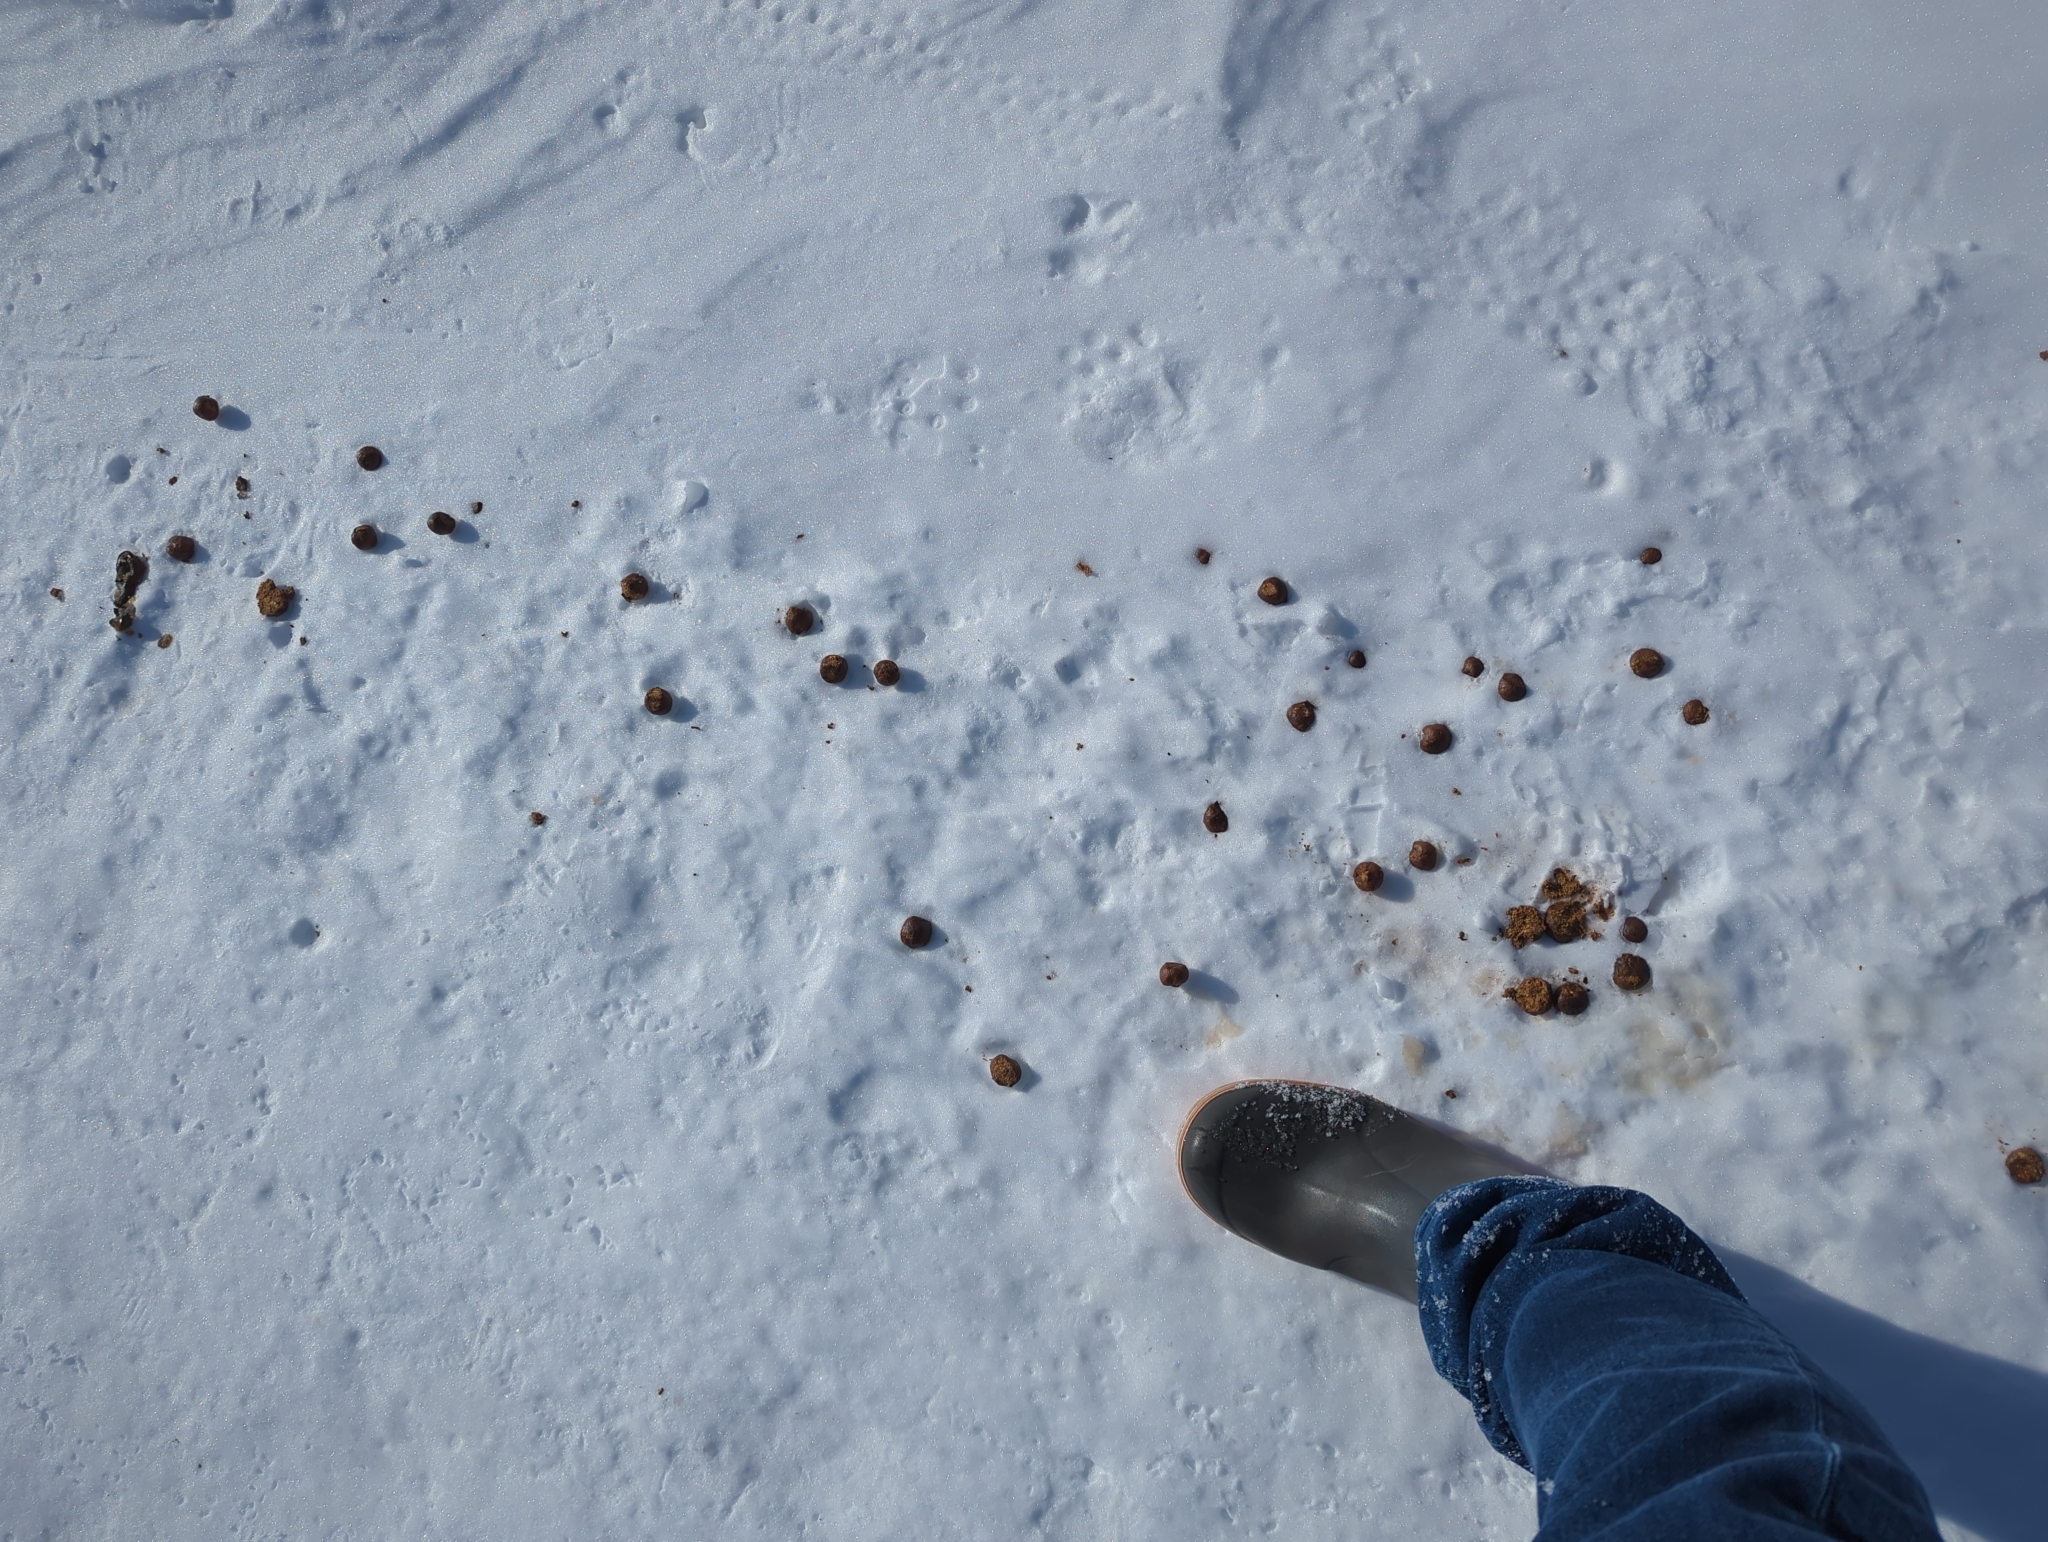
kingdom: Animalia
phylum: Chordata
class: Mammalia
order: Artiodactyla
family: Cervidae
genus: Alces
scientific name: Alces alces
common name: Moose
